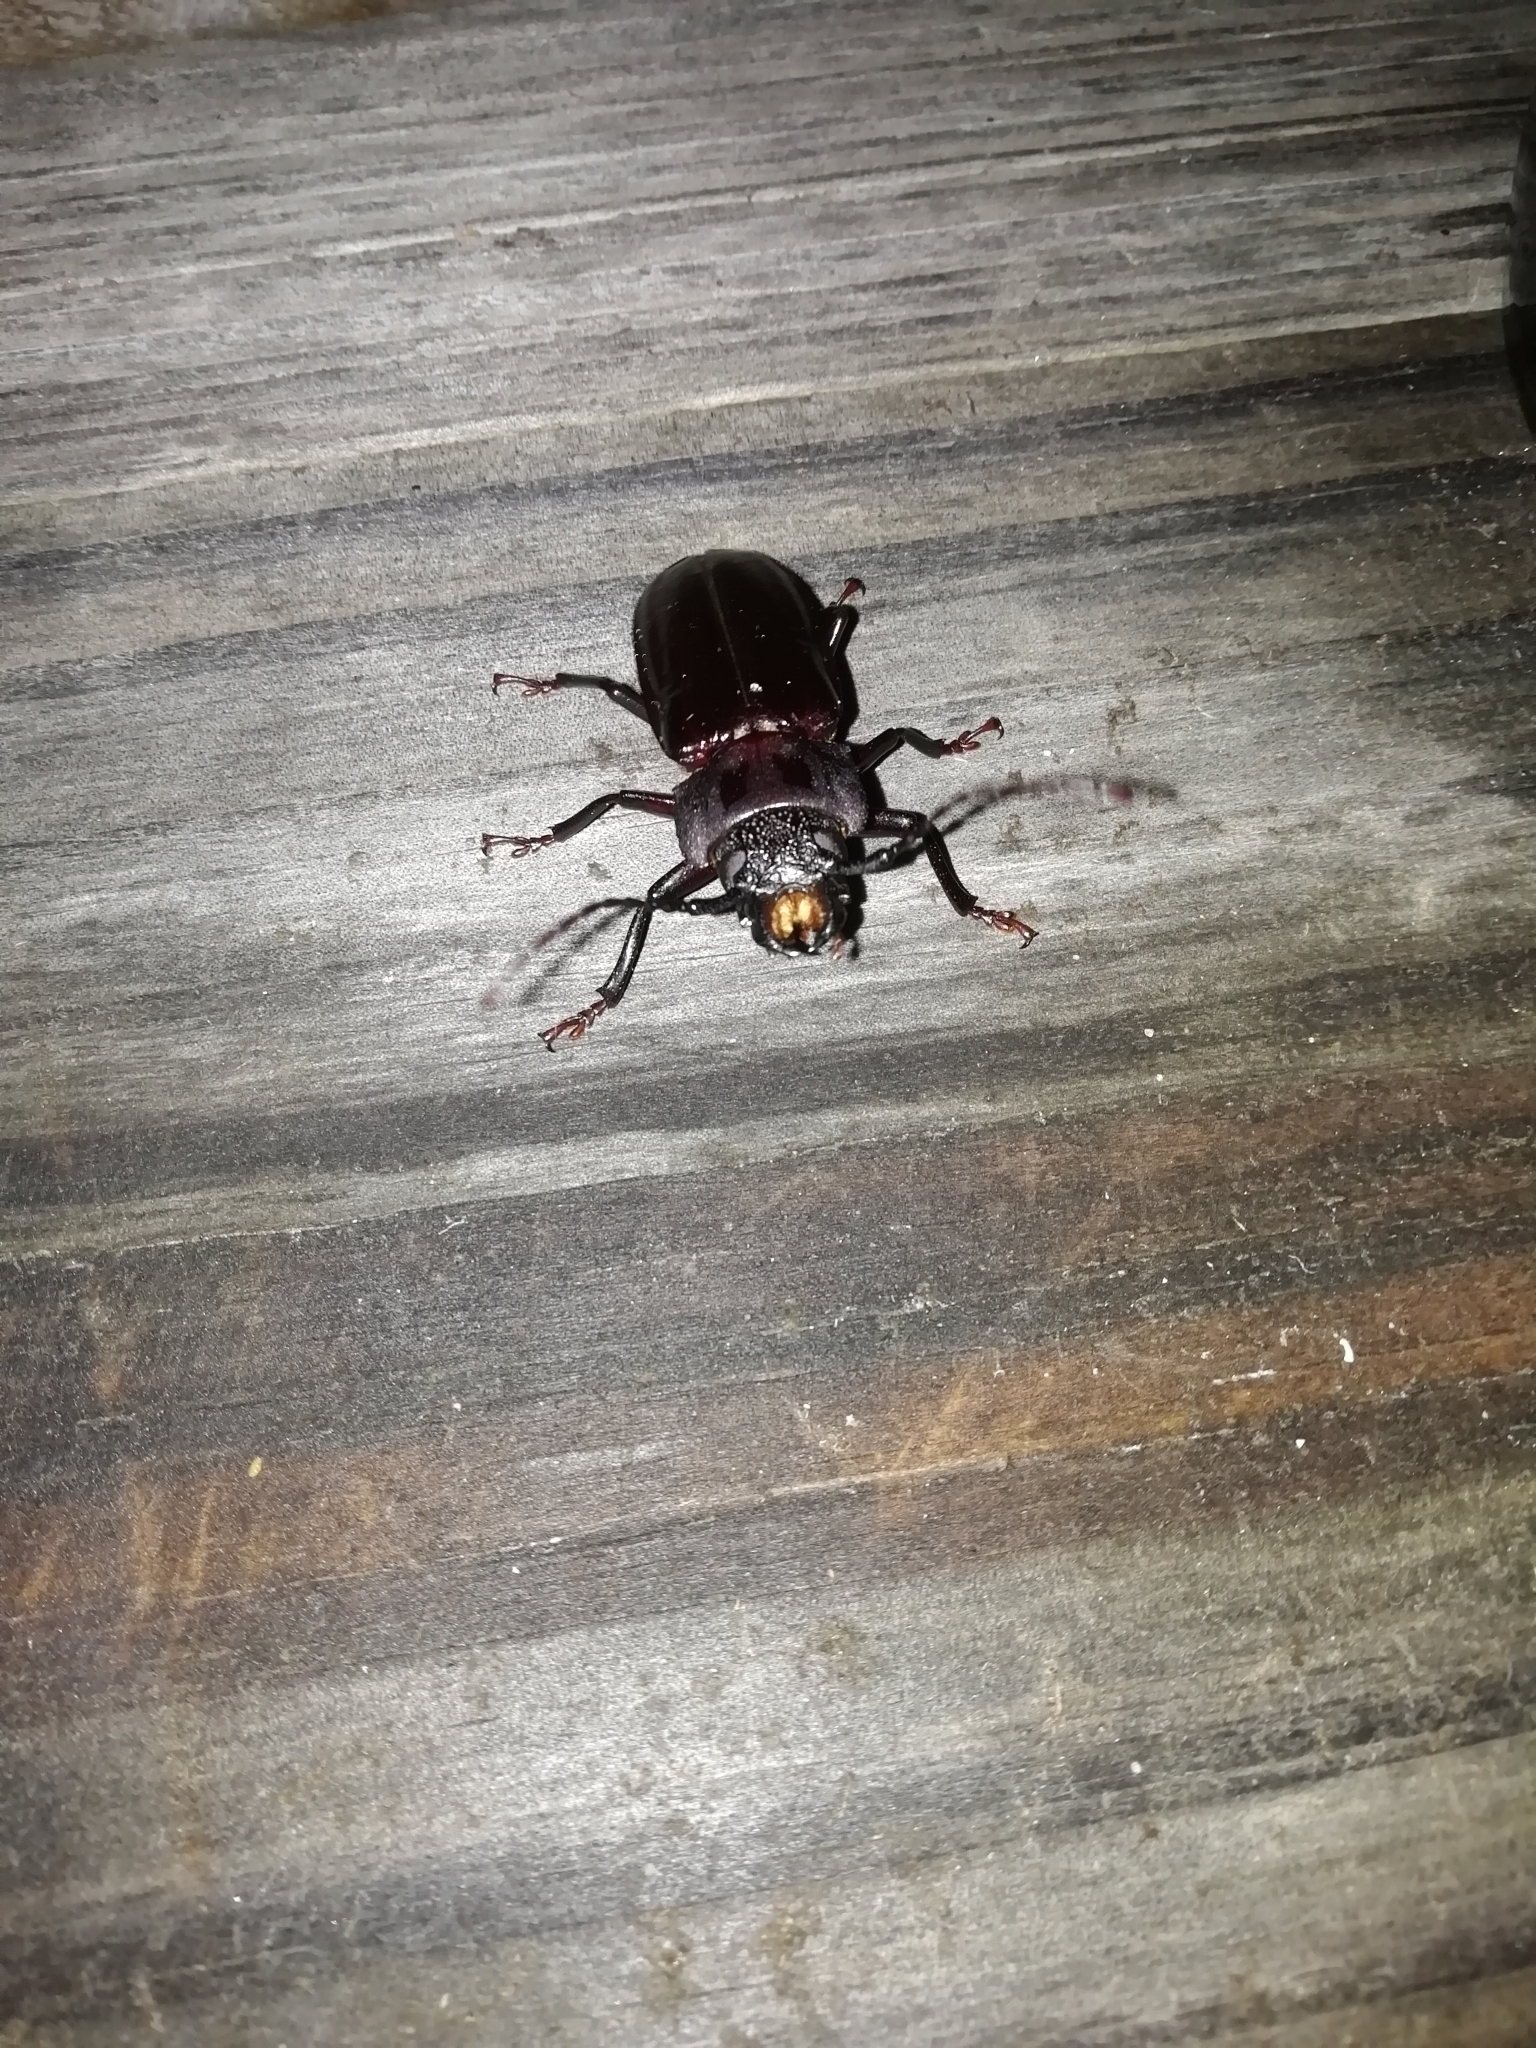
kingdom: Animalia
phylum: Arthropoda
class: Insecta
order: Coleoptera
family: Cerambycidae
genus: Mallodon
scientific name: Mallodon dasystomum
